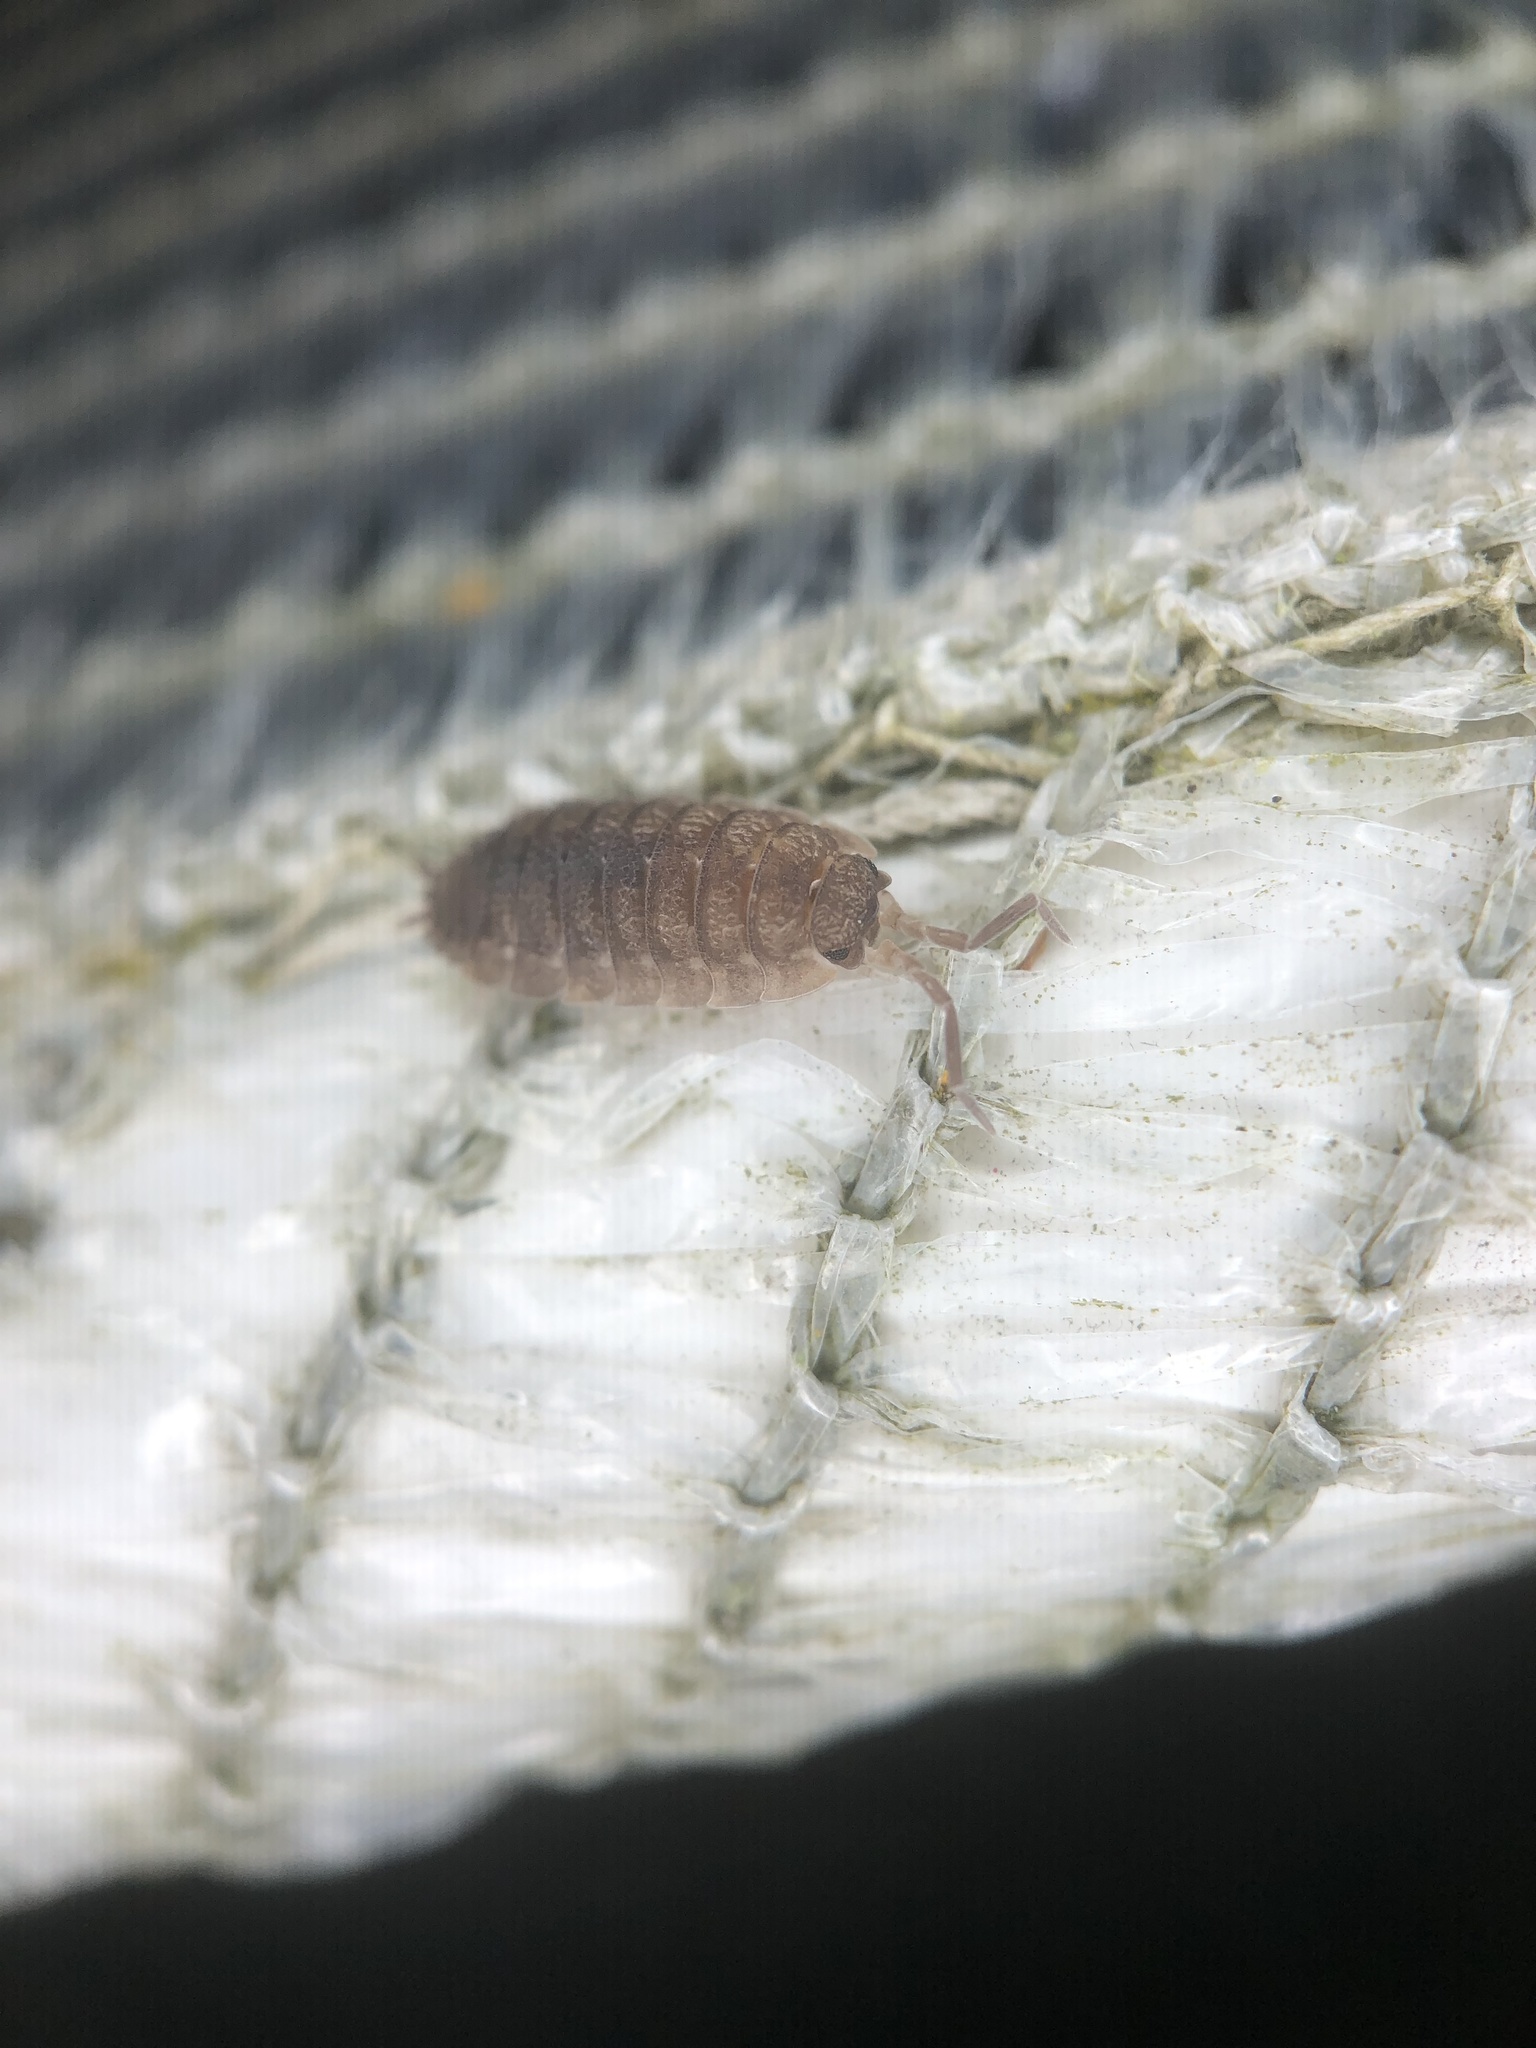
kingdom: Animalia
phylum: Arthropoda
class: Malacostraca
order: Isopoda
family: Porcellionidae
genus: Porcellio
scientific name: Porcellio scaber
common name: Common rough woodlouse
